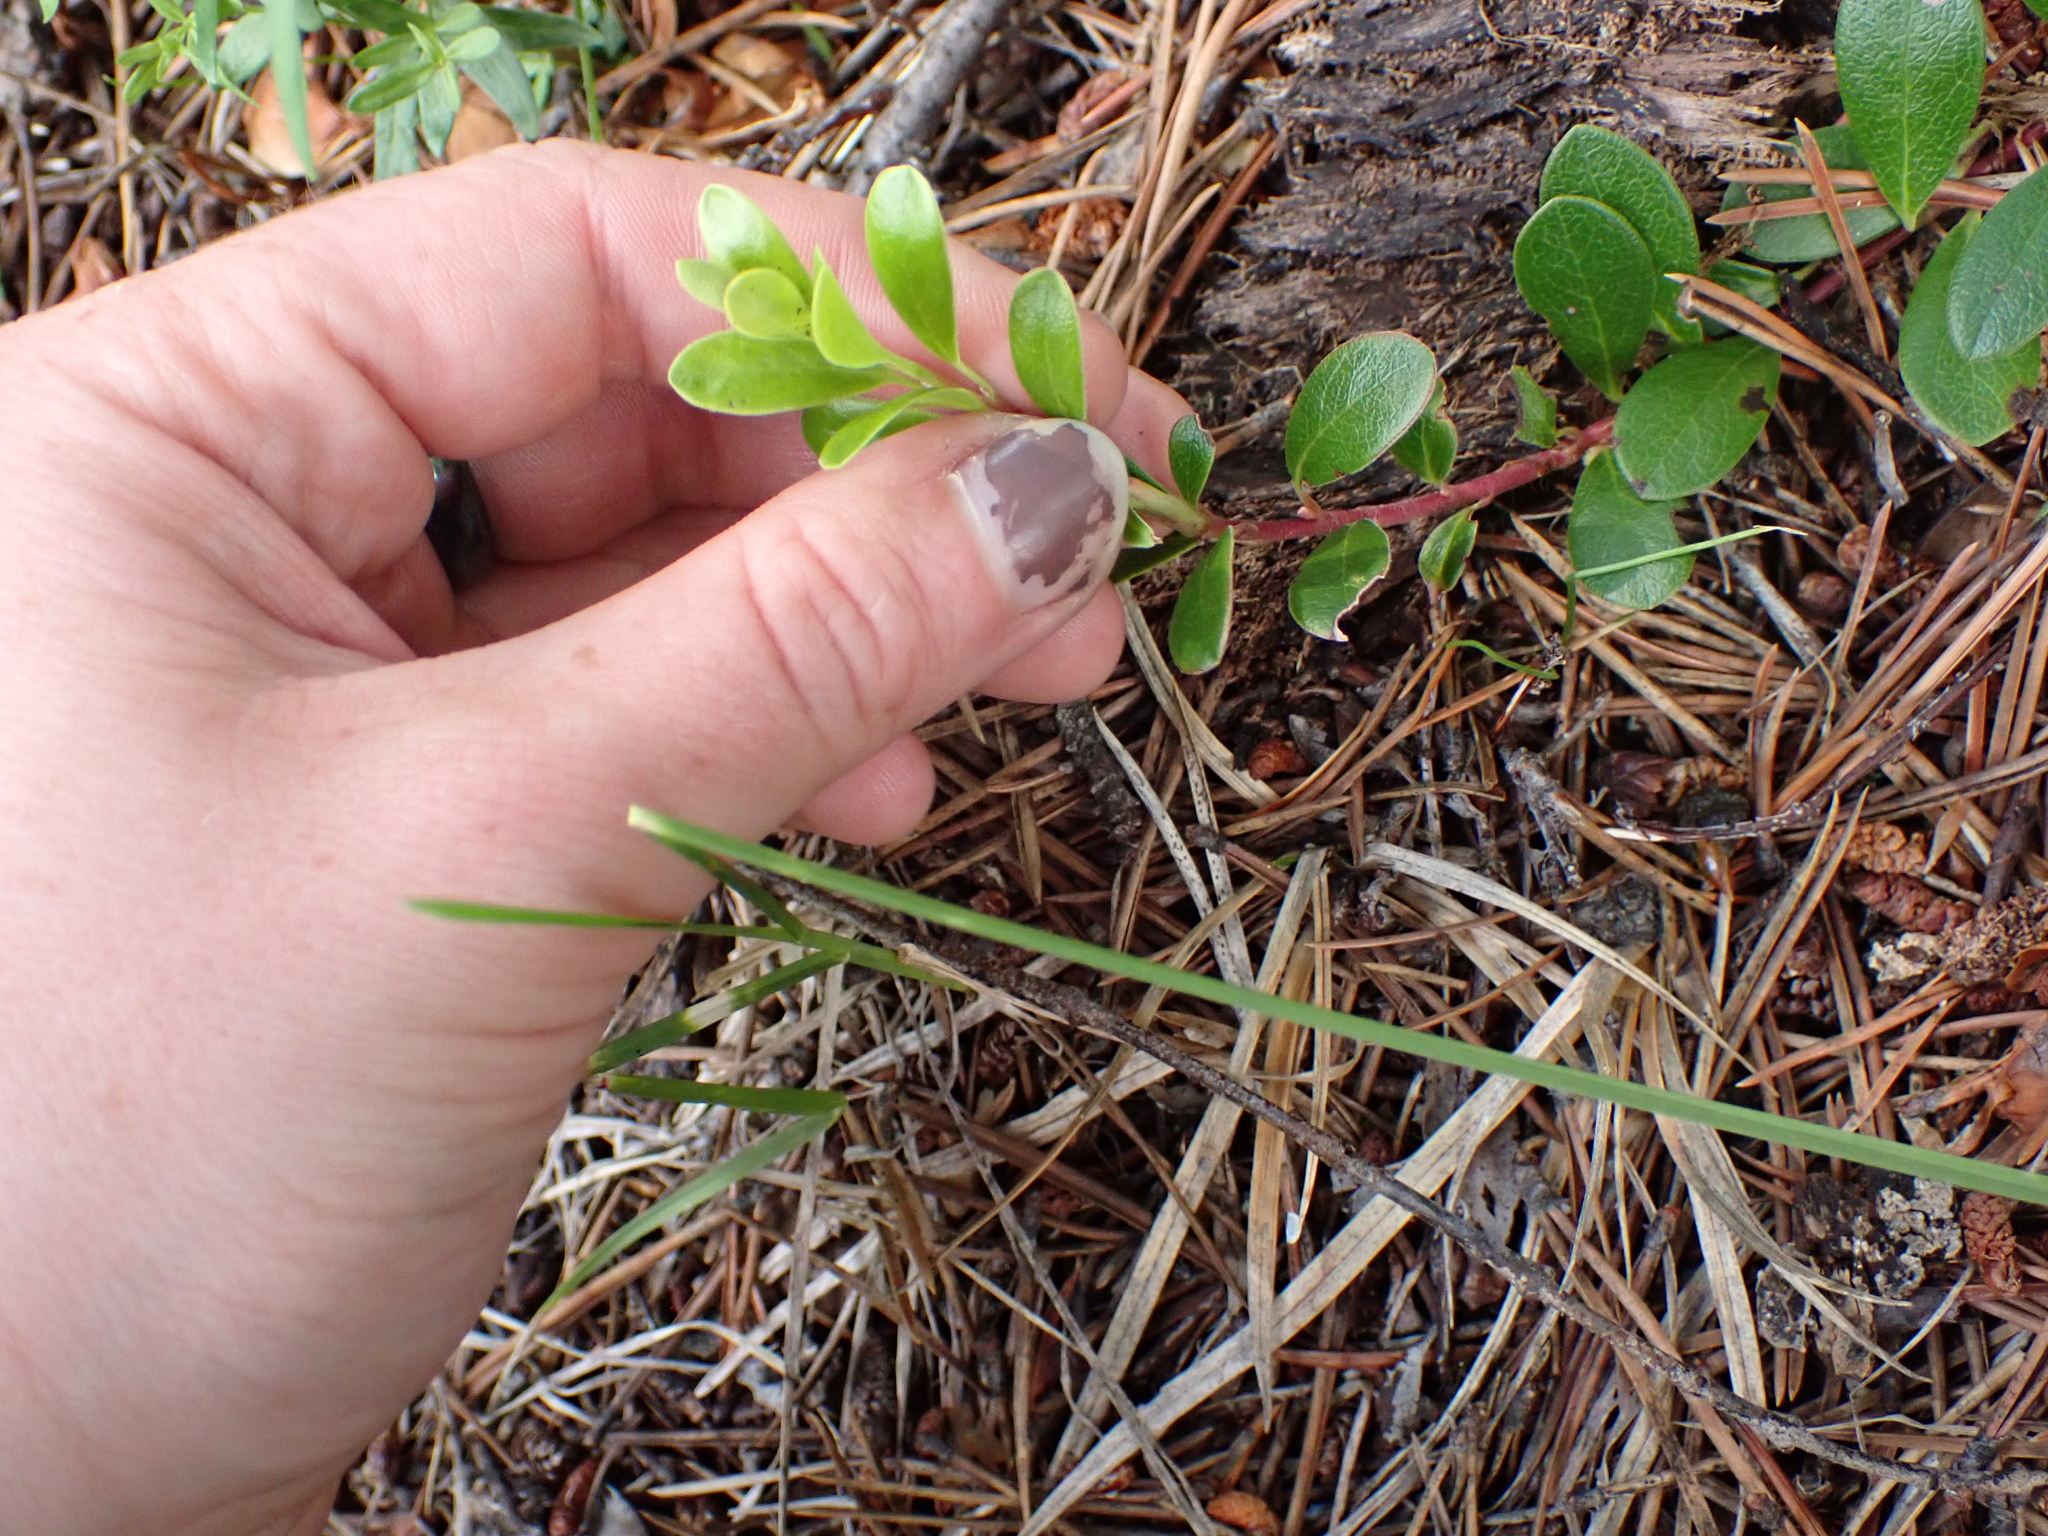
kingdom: Plantae
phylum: Tracheophyta
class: Magnoliopsida
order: Ericales
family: Ericaceae
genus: Arctostaphylos
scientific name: Arctostaphylos uva-ursi
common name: Bearberry
